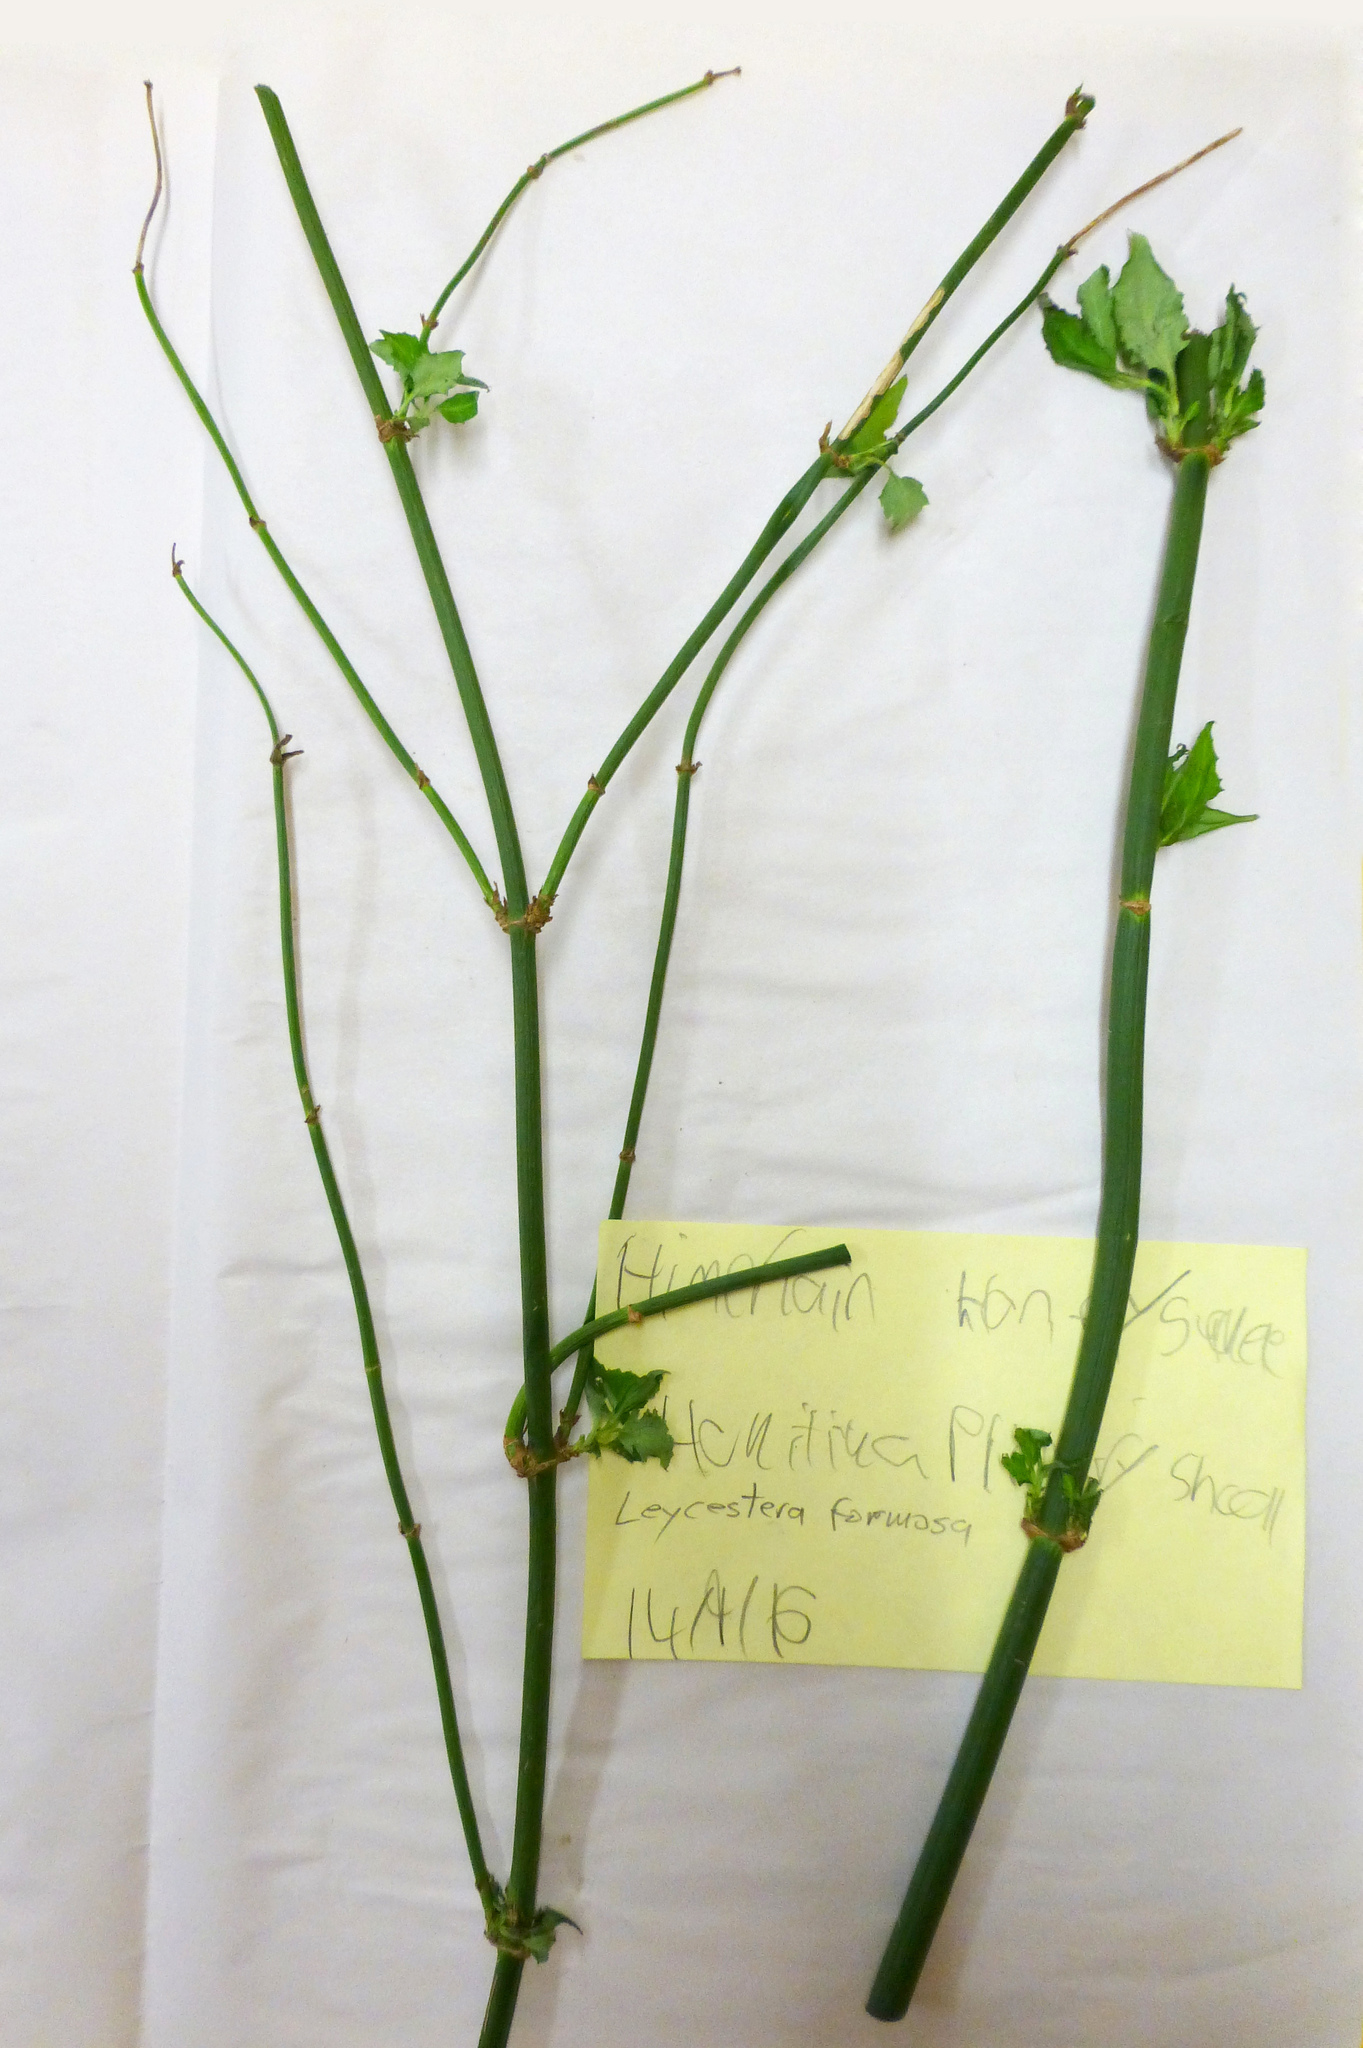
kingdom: Plantae
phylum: Tracheophyta
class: Magnoliopsida
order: Dipsacales
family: Caprifoliaceae
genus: Leycesteria
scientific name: Leycesteria formosa
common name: Himalayan honeysuckle
